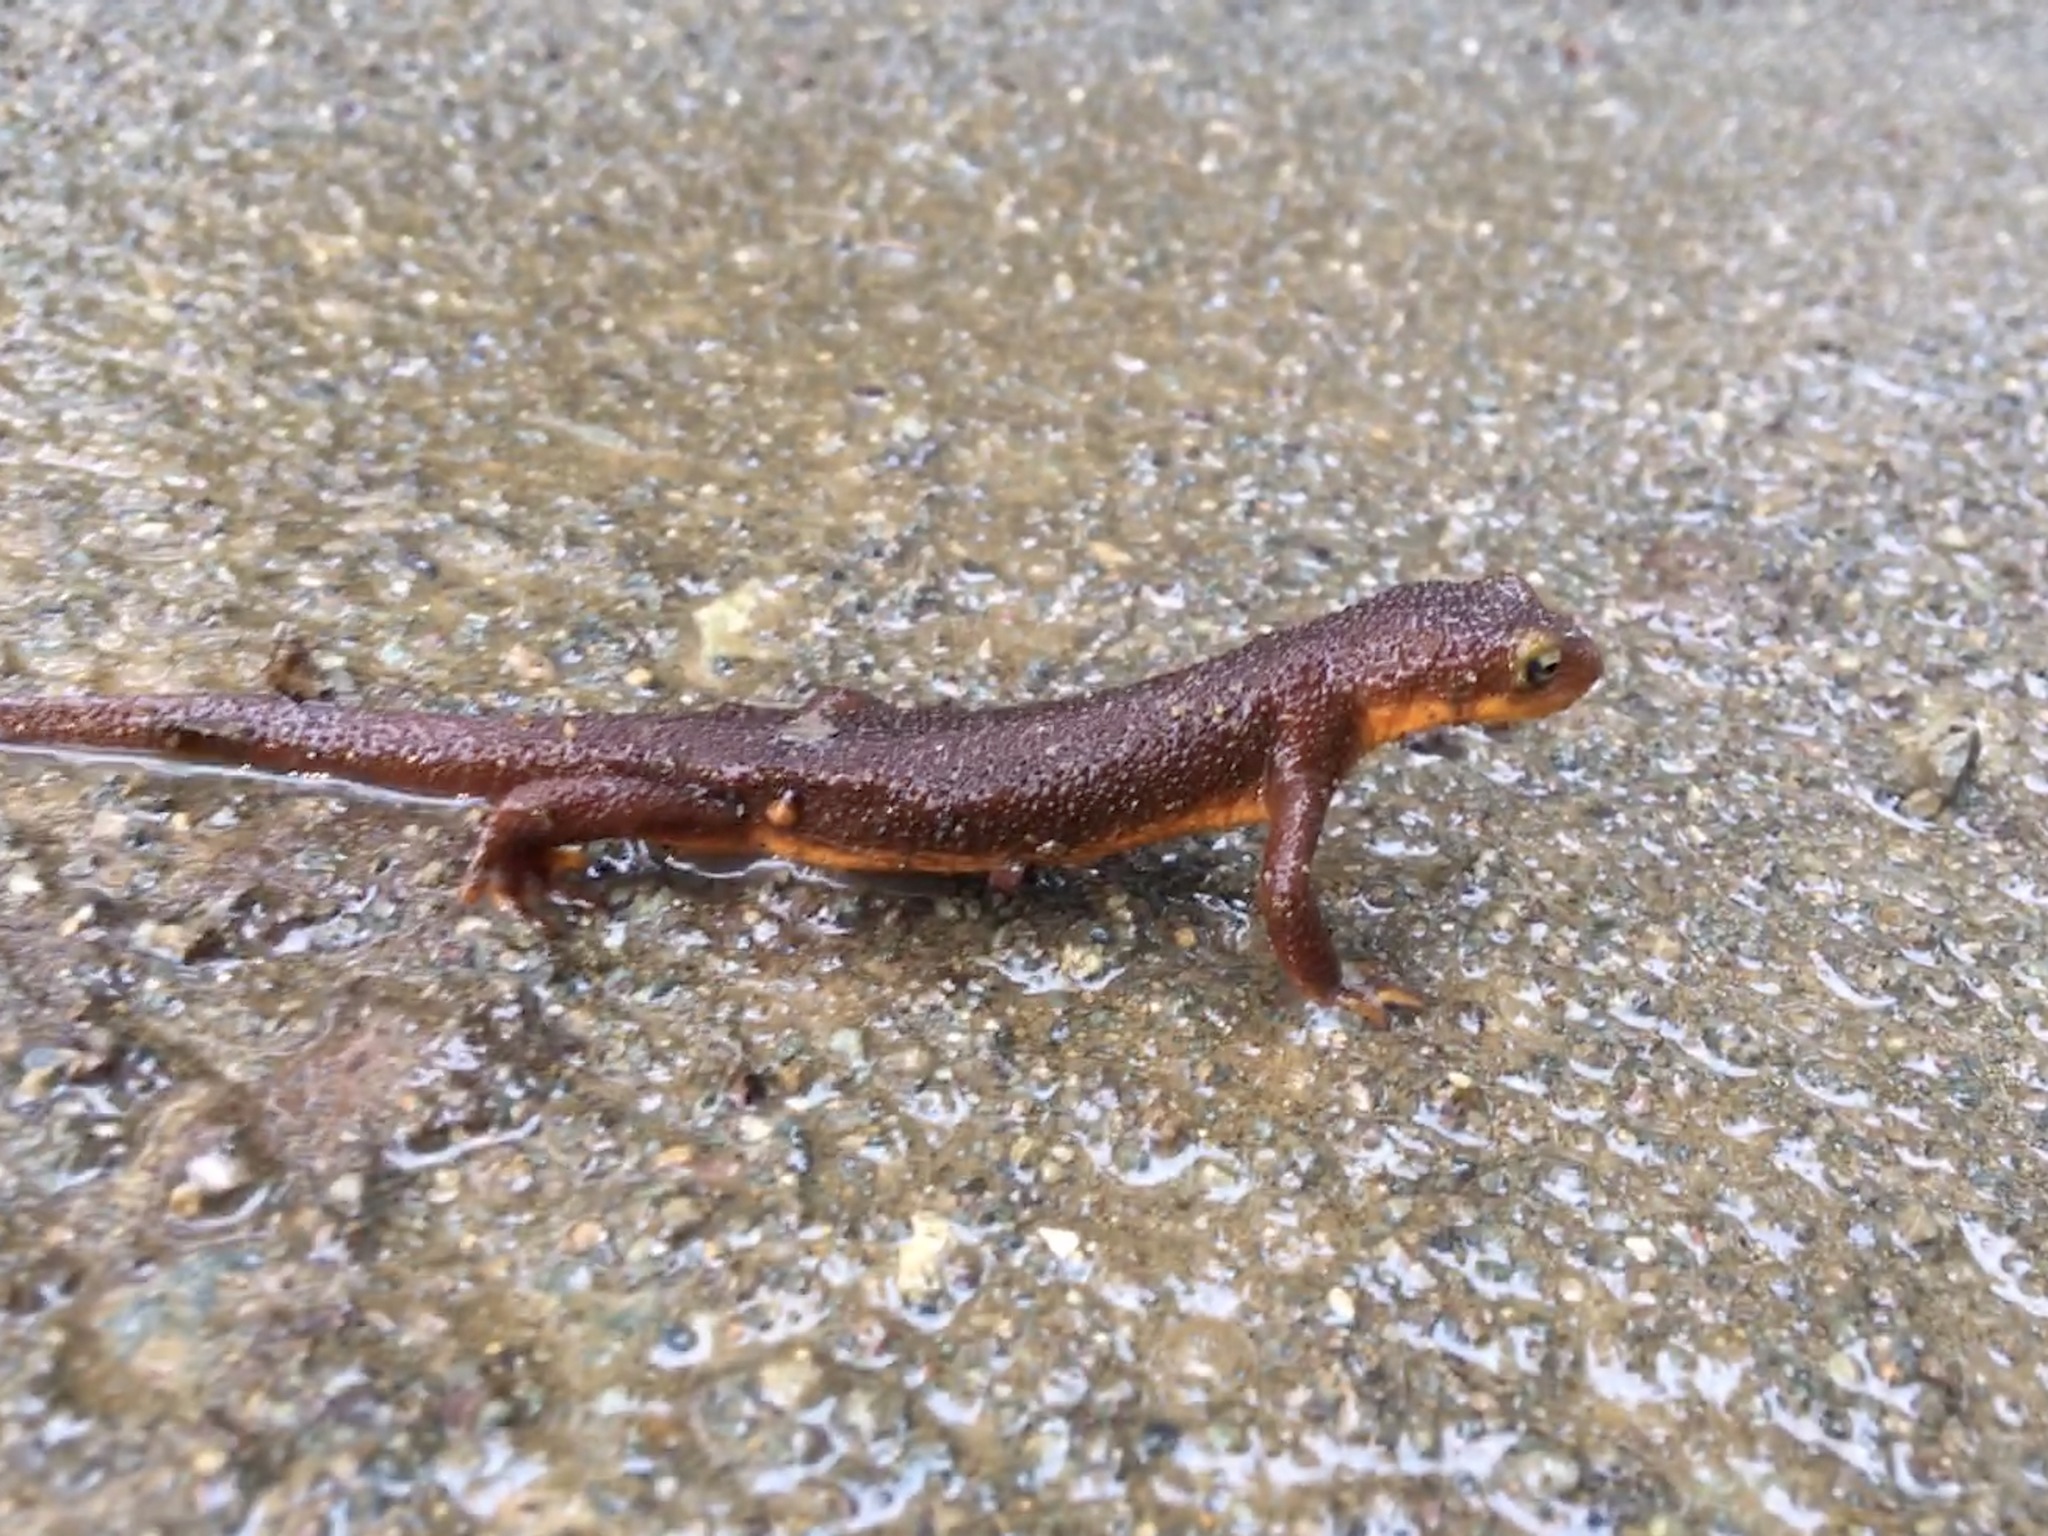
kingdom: Animalia
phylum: Chordata
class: Amphibia
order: Caudata
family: Salamandridae
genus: Taricha
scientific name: Taricha torosa
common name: California newt
